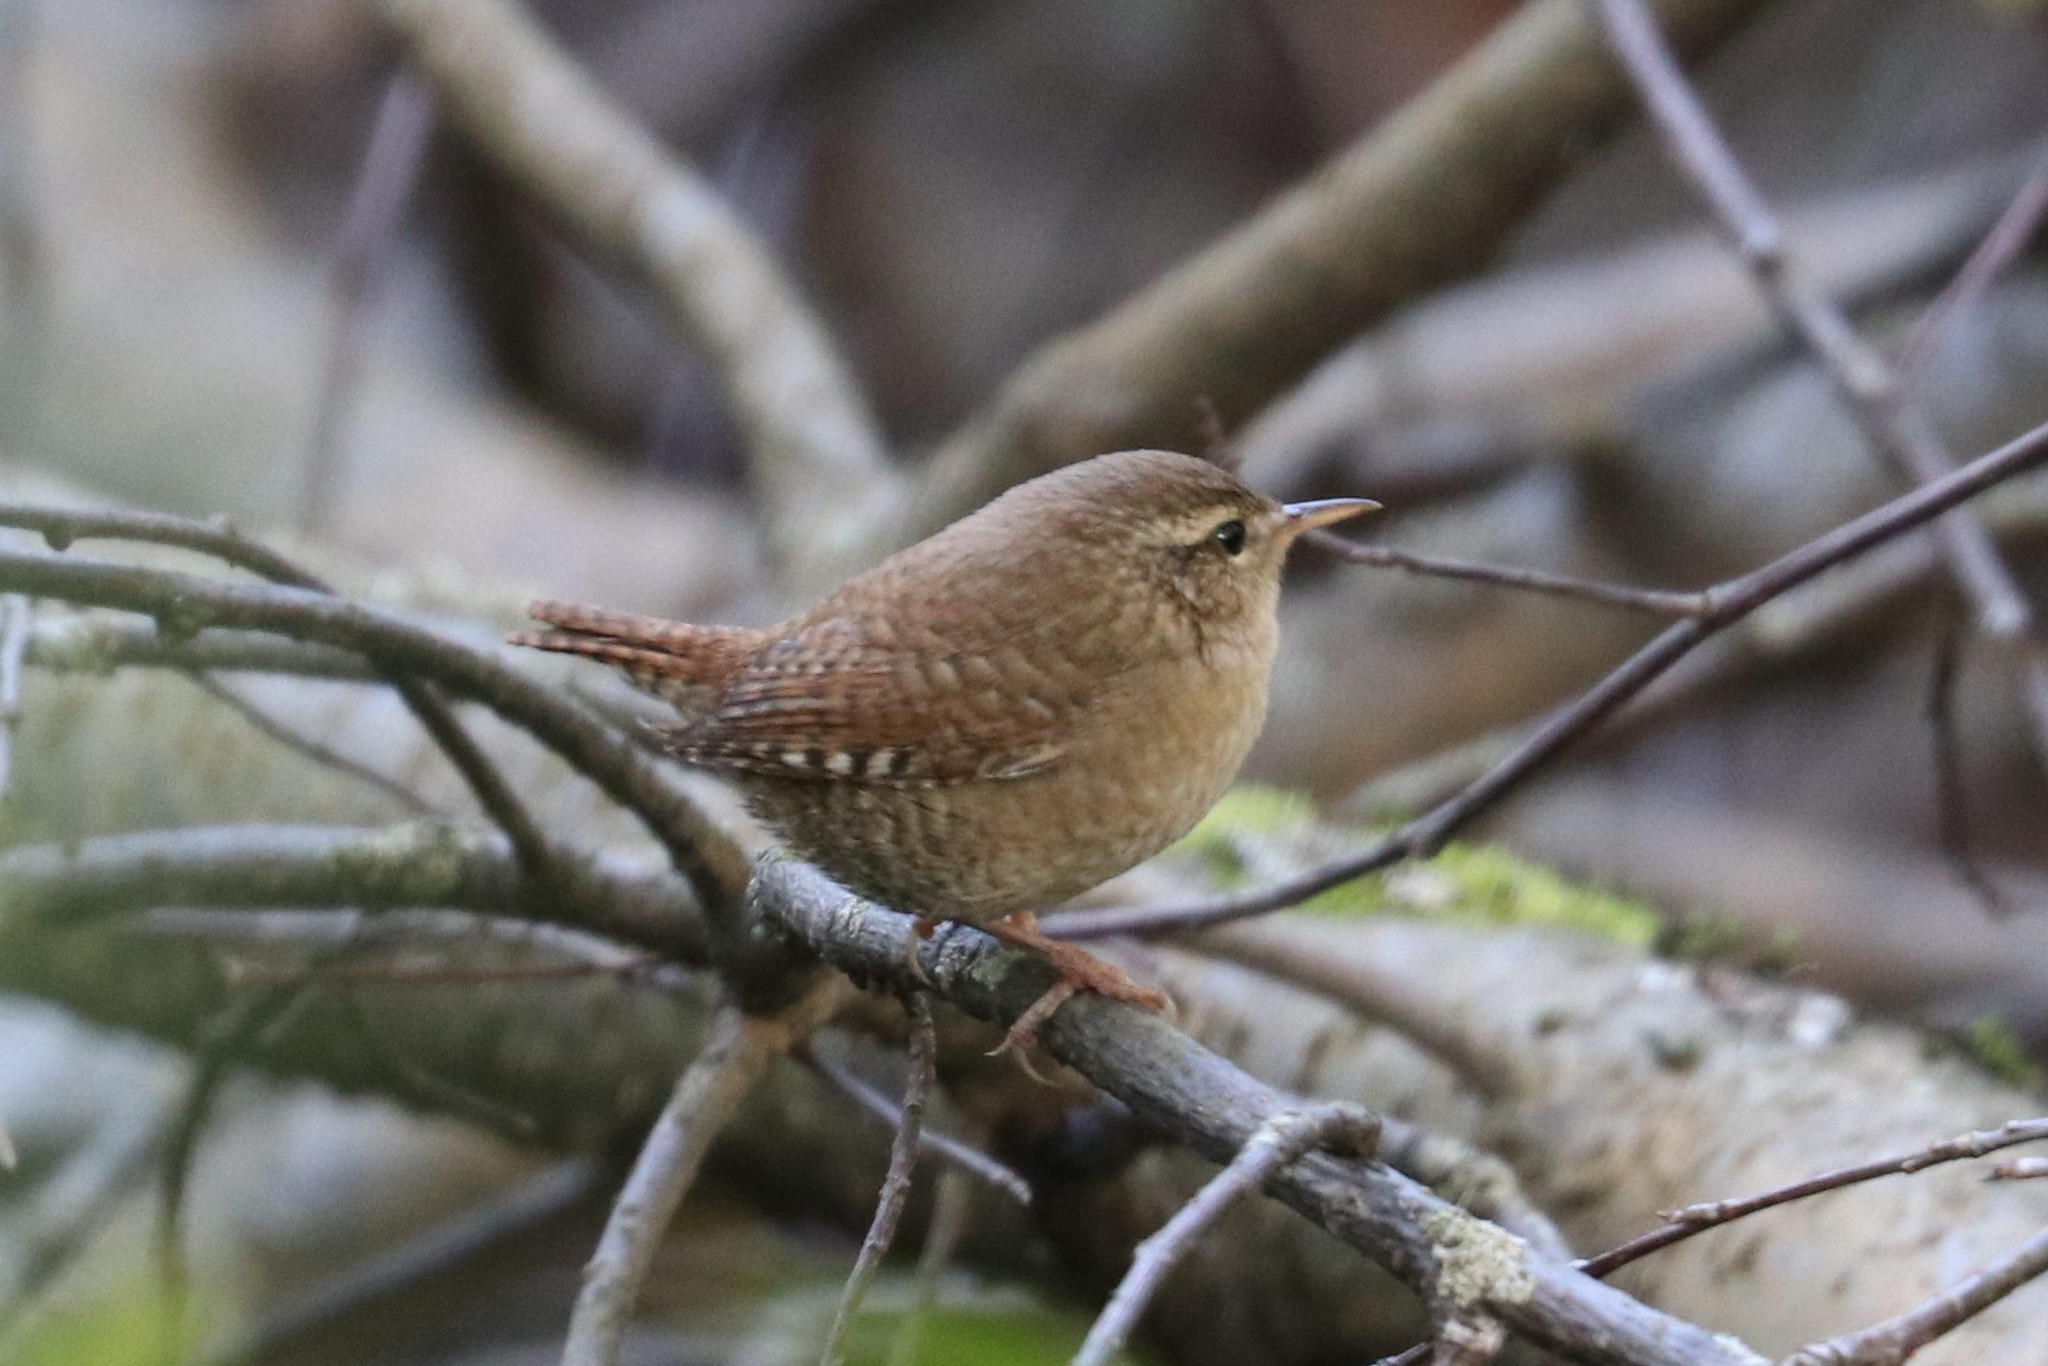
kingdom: Animalia
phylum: Chordata
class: Aves
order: Passeriformes
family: Troglodytidae
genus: Troglodytes
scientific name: Troglodytes troglodytes
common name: Eurasian wren
